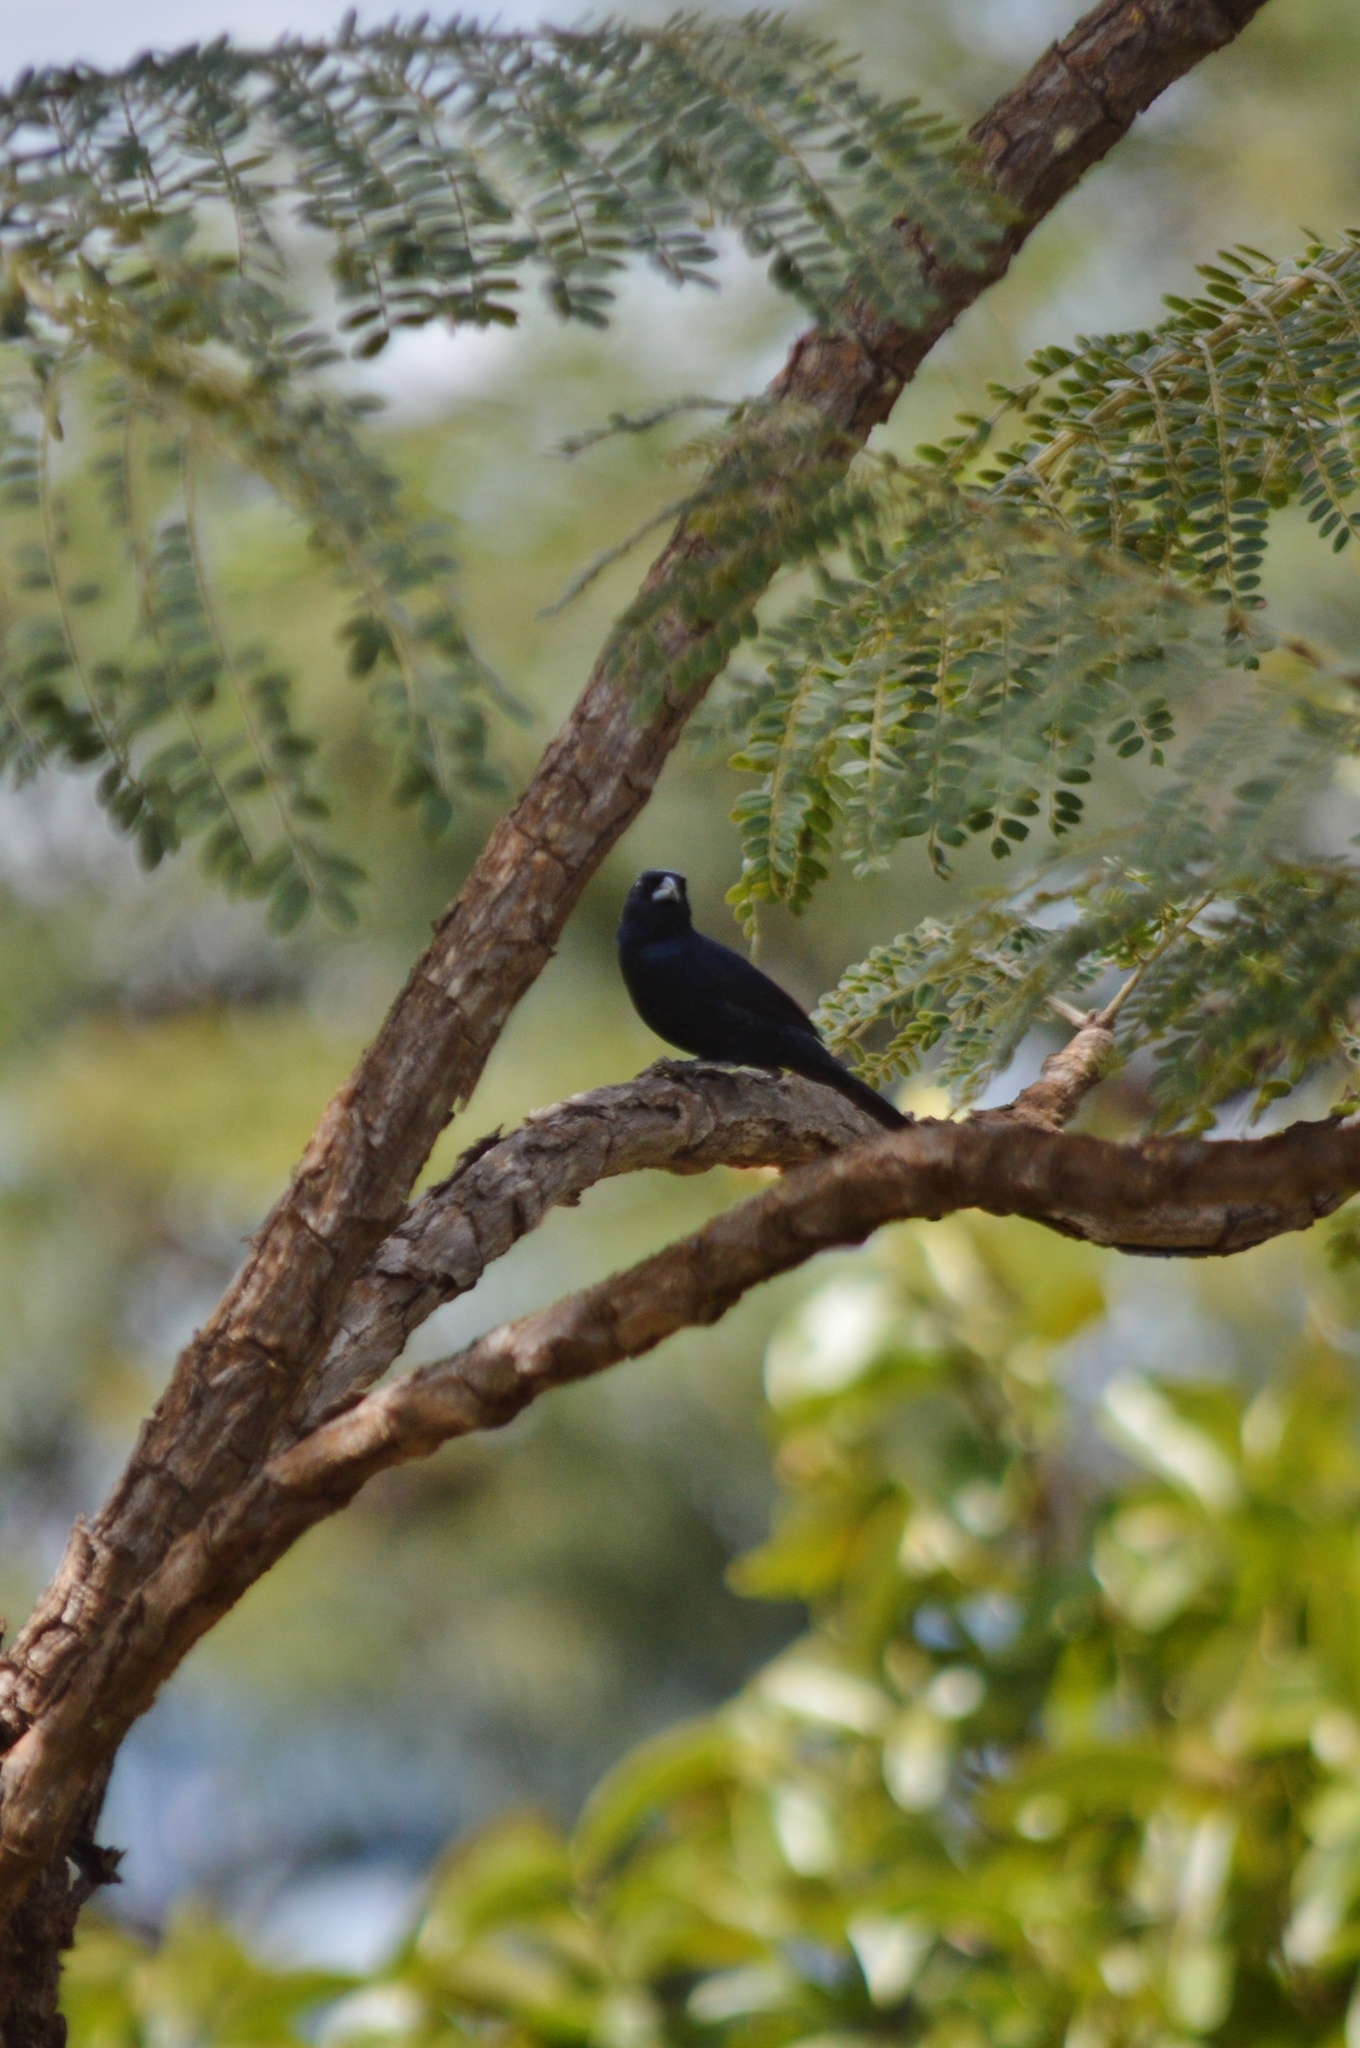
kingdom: Animalia
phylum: Chordata
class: Aves
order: Passeriformes
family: Thraupidae
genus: Volatinia
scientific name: Volatinia jacarina
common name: Blue-black grassquit
